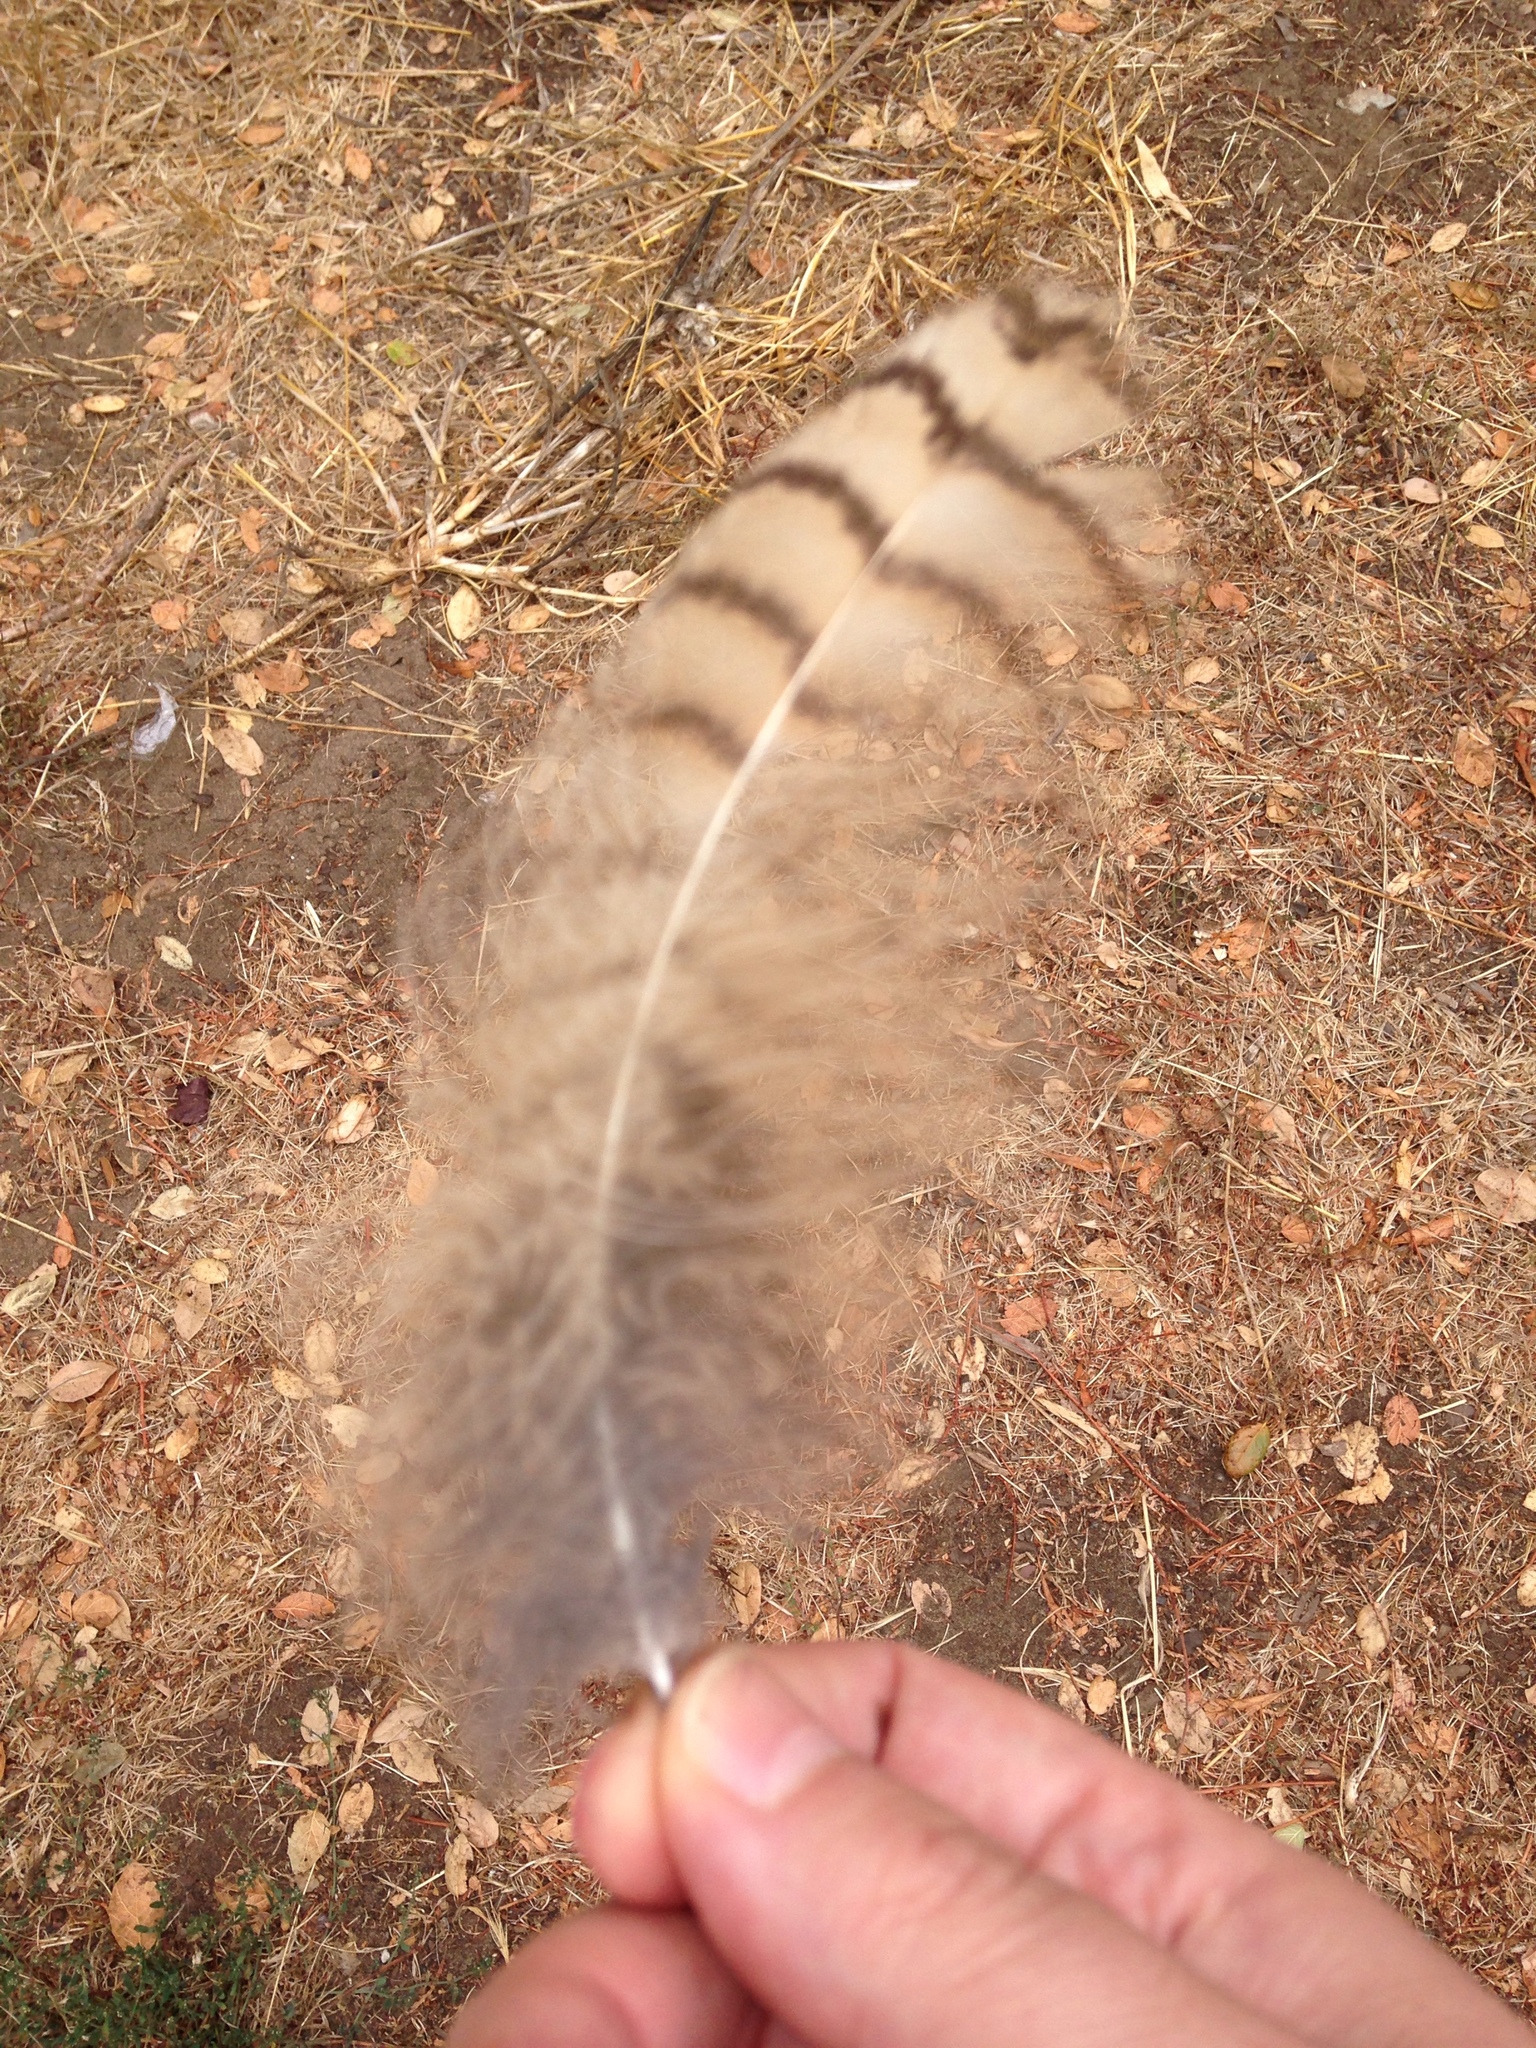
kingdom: Animalia
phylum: Chordata
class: Aves
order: Strigiformes
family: Strigidae
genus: Bubo
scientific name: Bubo virginianus
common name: Great horned owl
